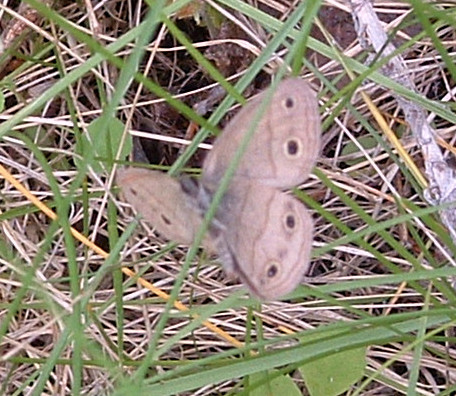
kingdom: Animalia
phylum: Arthropoda
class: Insecta
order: Lepidoptera
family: Nymphalidae
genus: Euptychia
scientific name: Euptychia cymela
